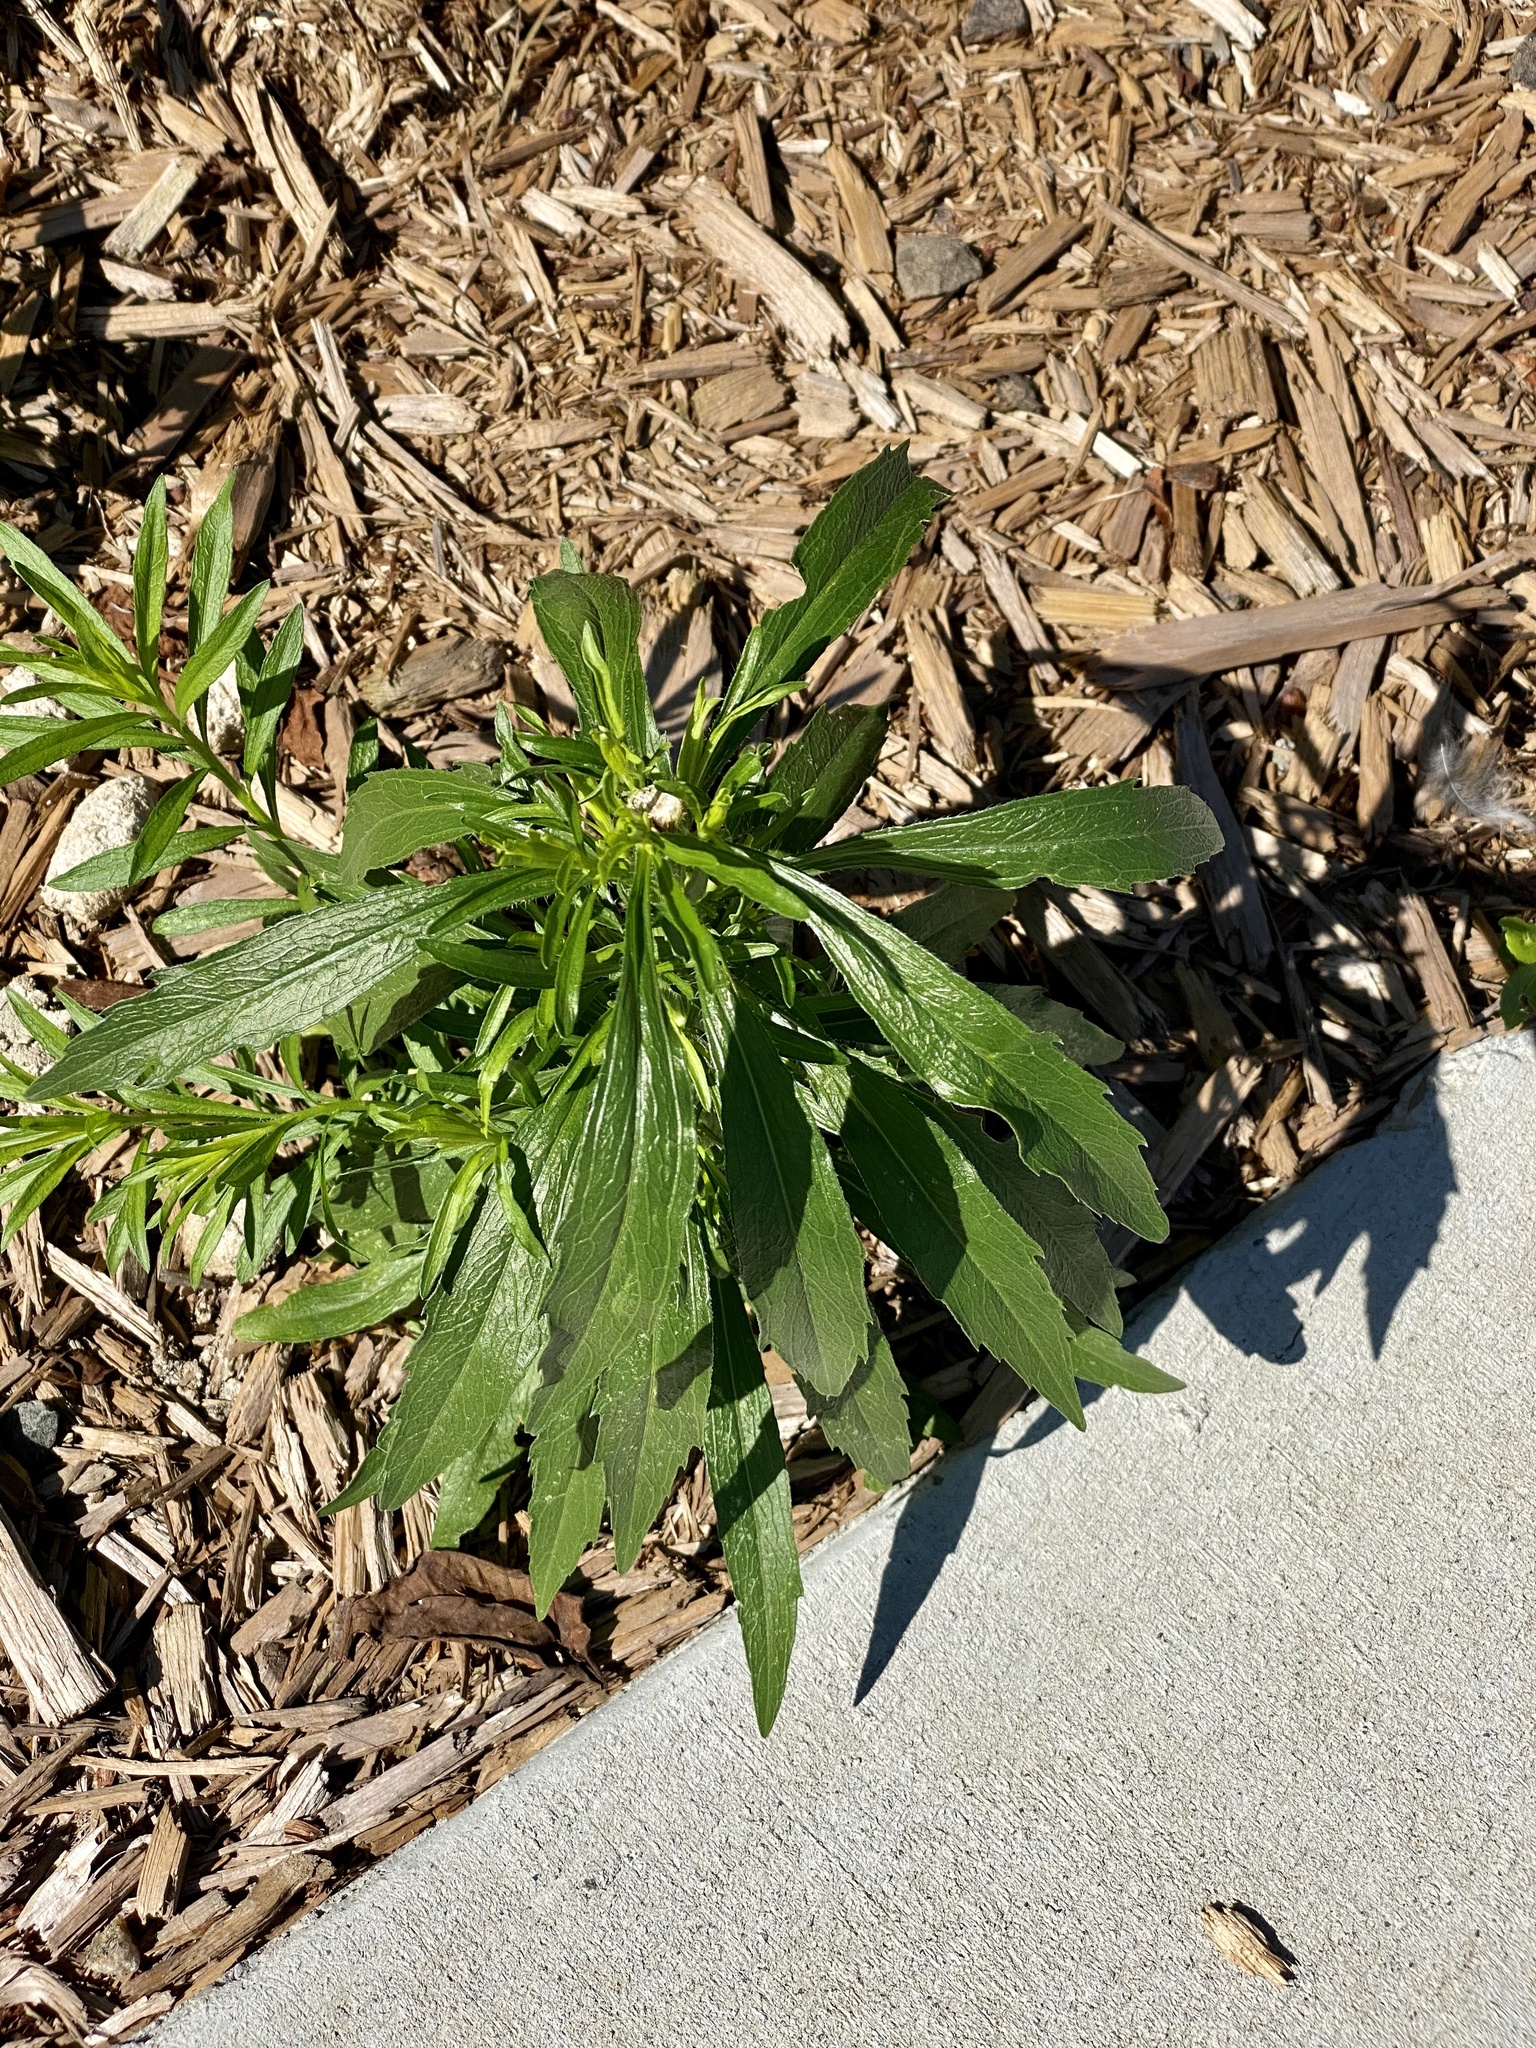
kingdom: Plantae
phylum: Tracheophyta
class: Magnoliopsida
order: Asterales
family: Asteraceae
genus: Erigeron
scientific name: Erigeron canadensis
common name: Canadian fleabane
